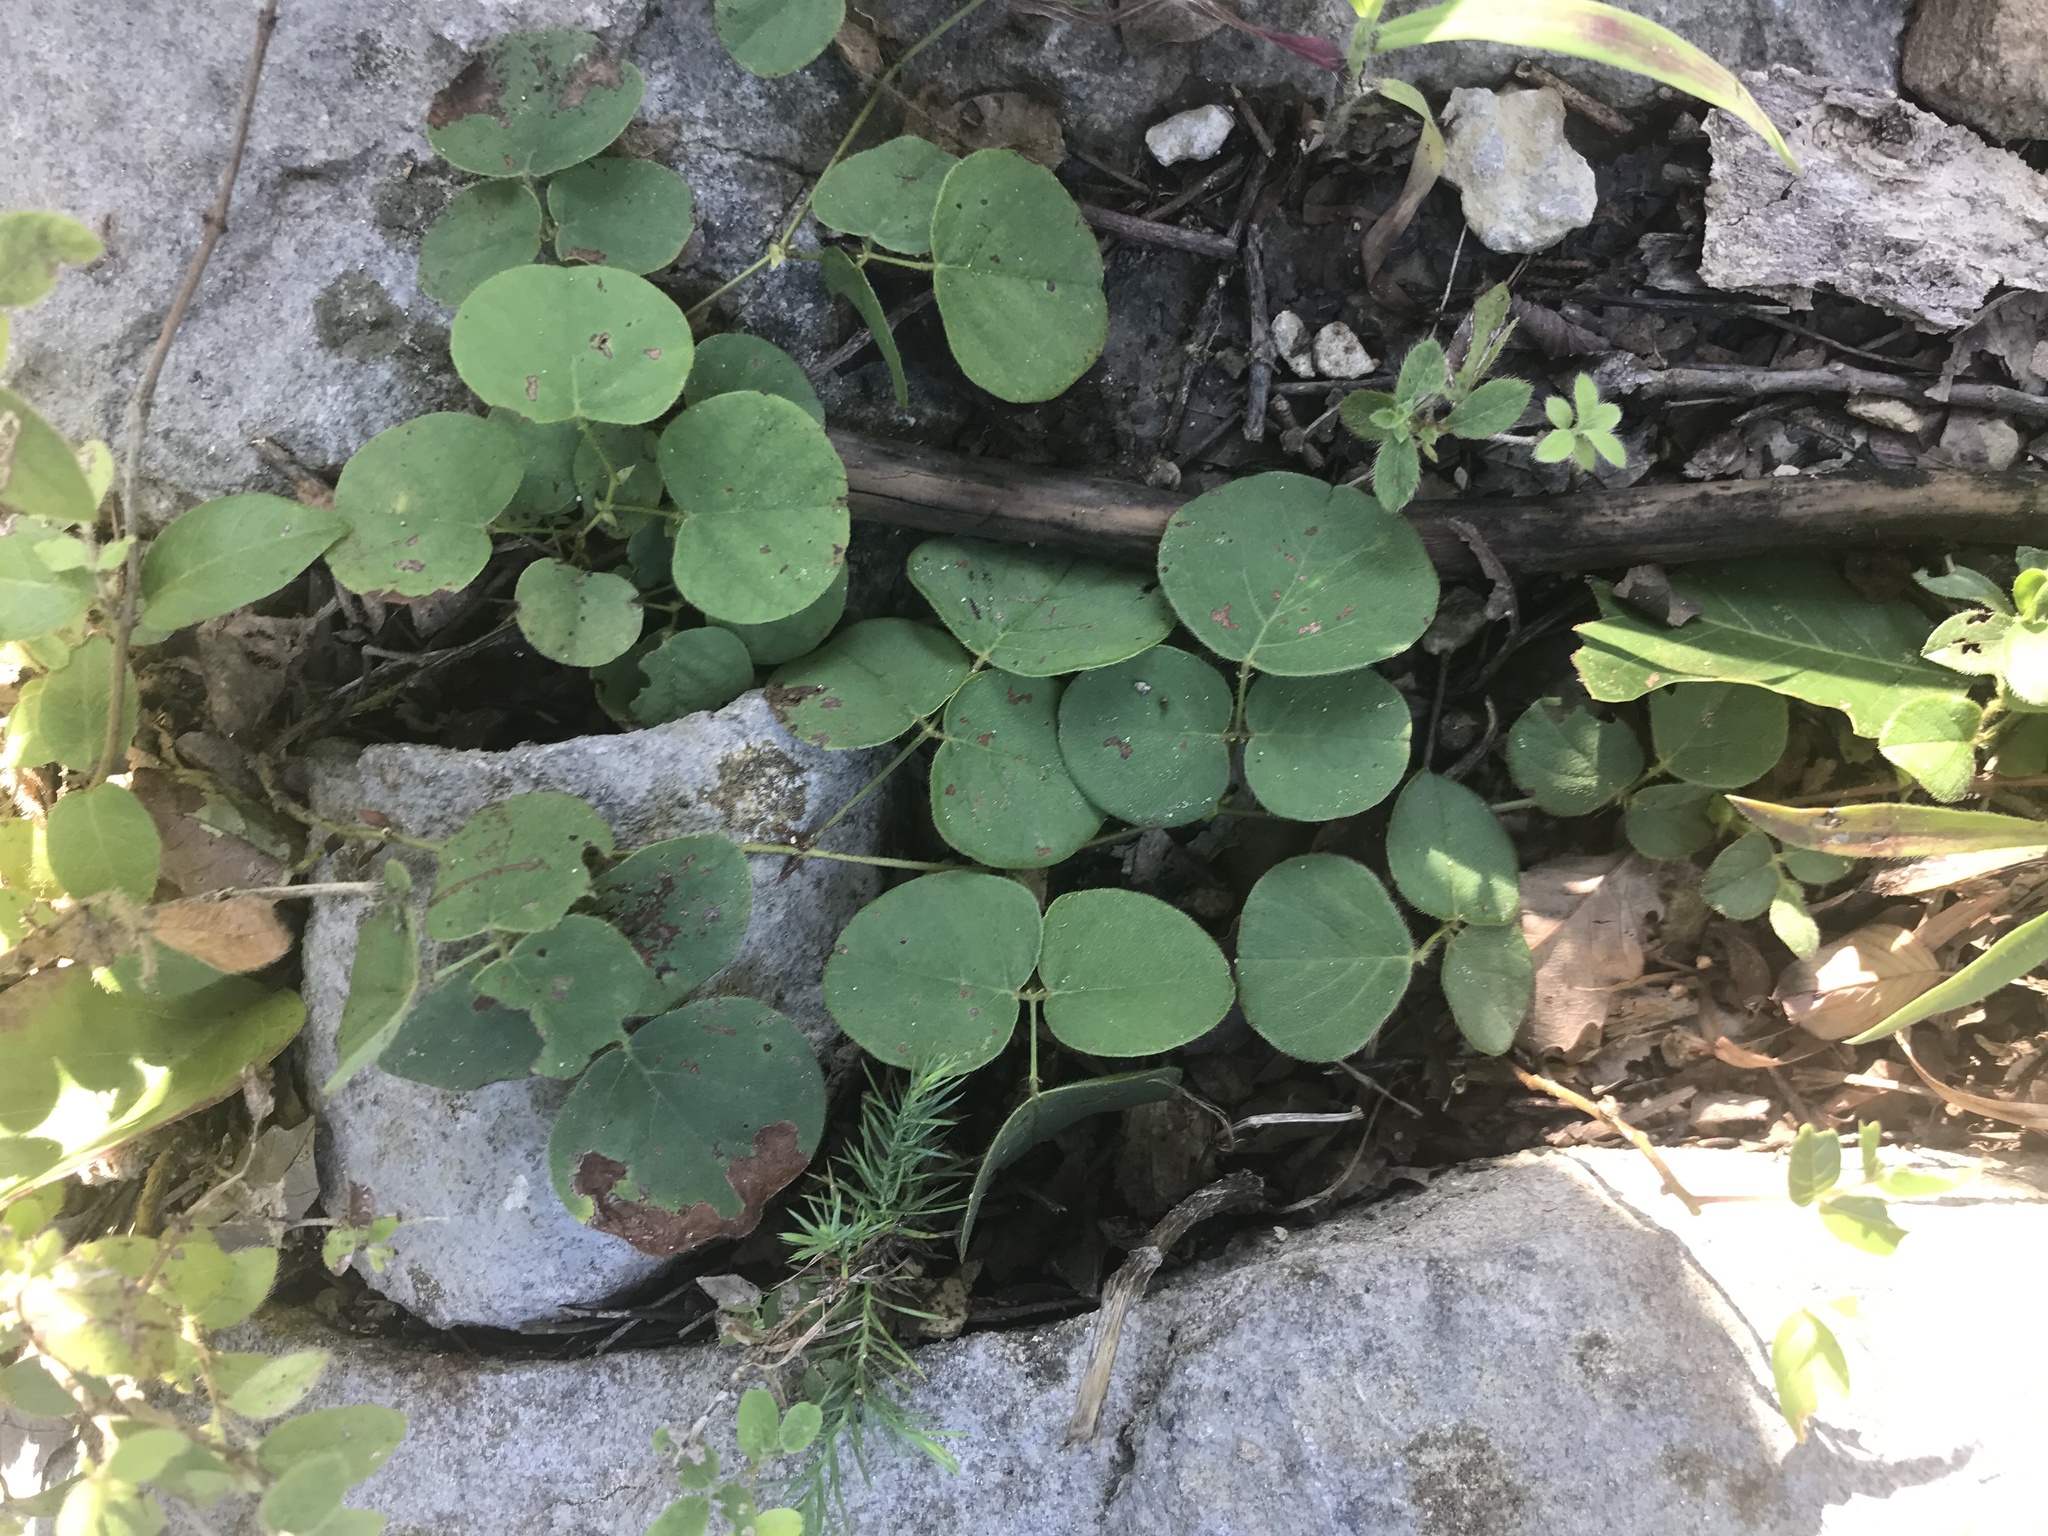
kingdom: Plantae
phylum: Tracheophyta
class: Magnoliopsida
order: Fabales
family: Fabaceae
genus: Desmodium
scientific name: Desmodium rotundifolium
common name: Dollarleaf
